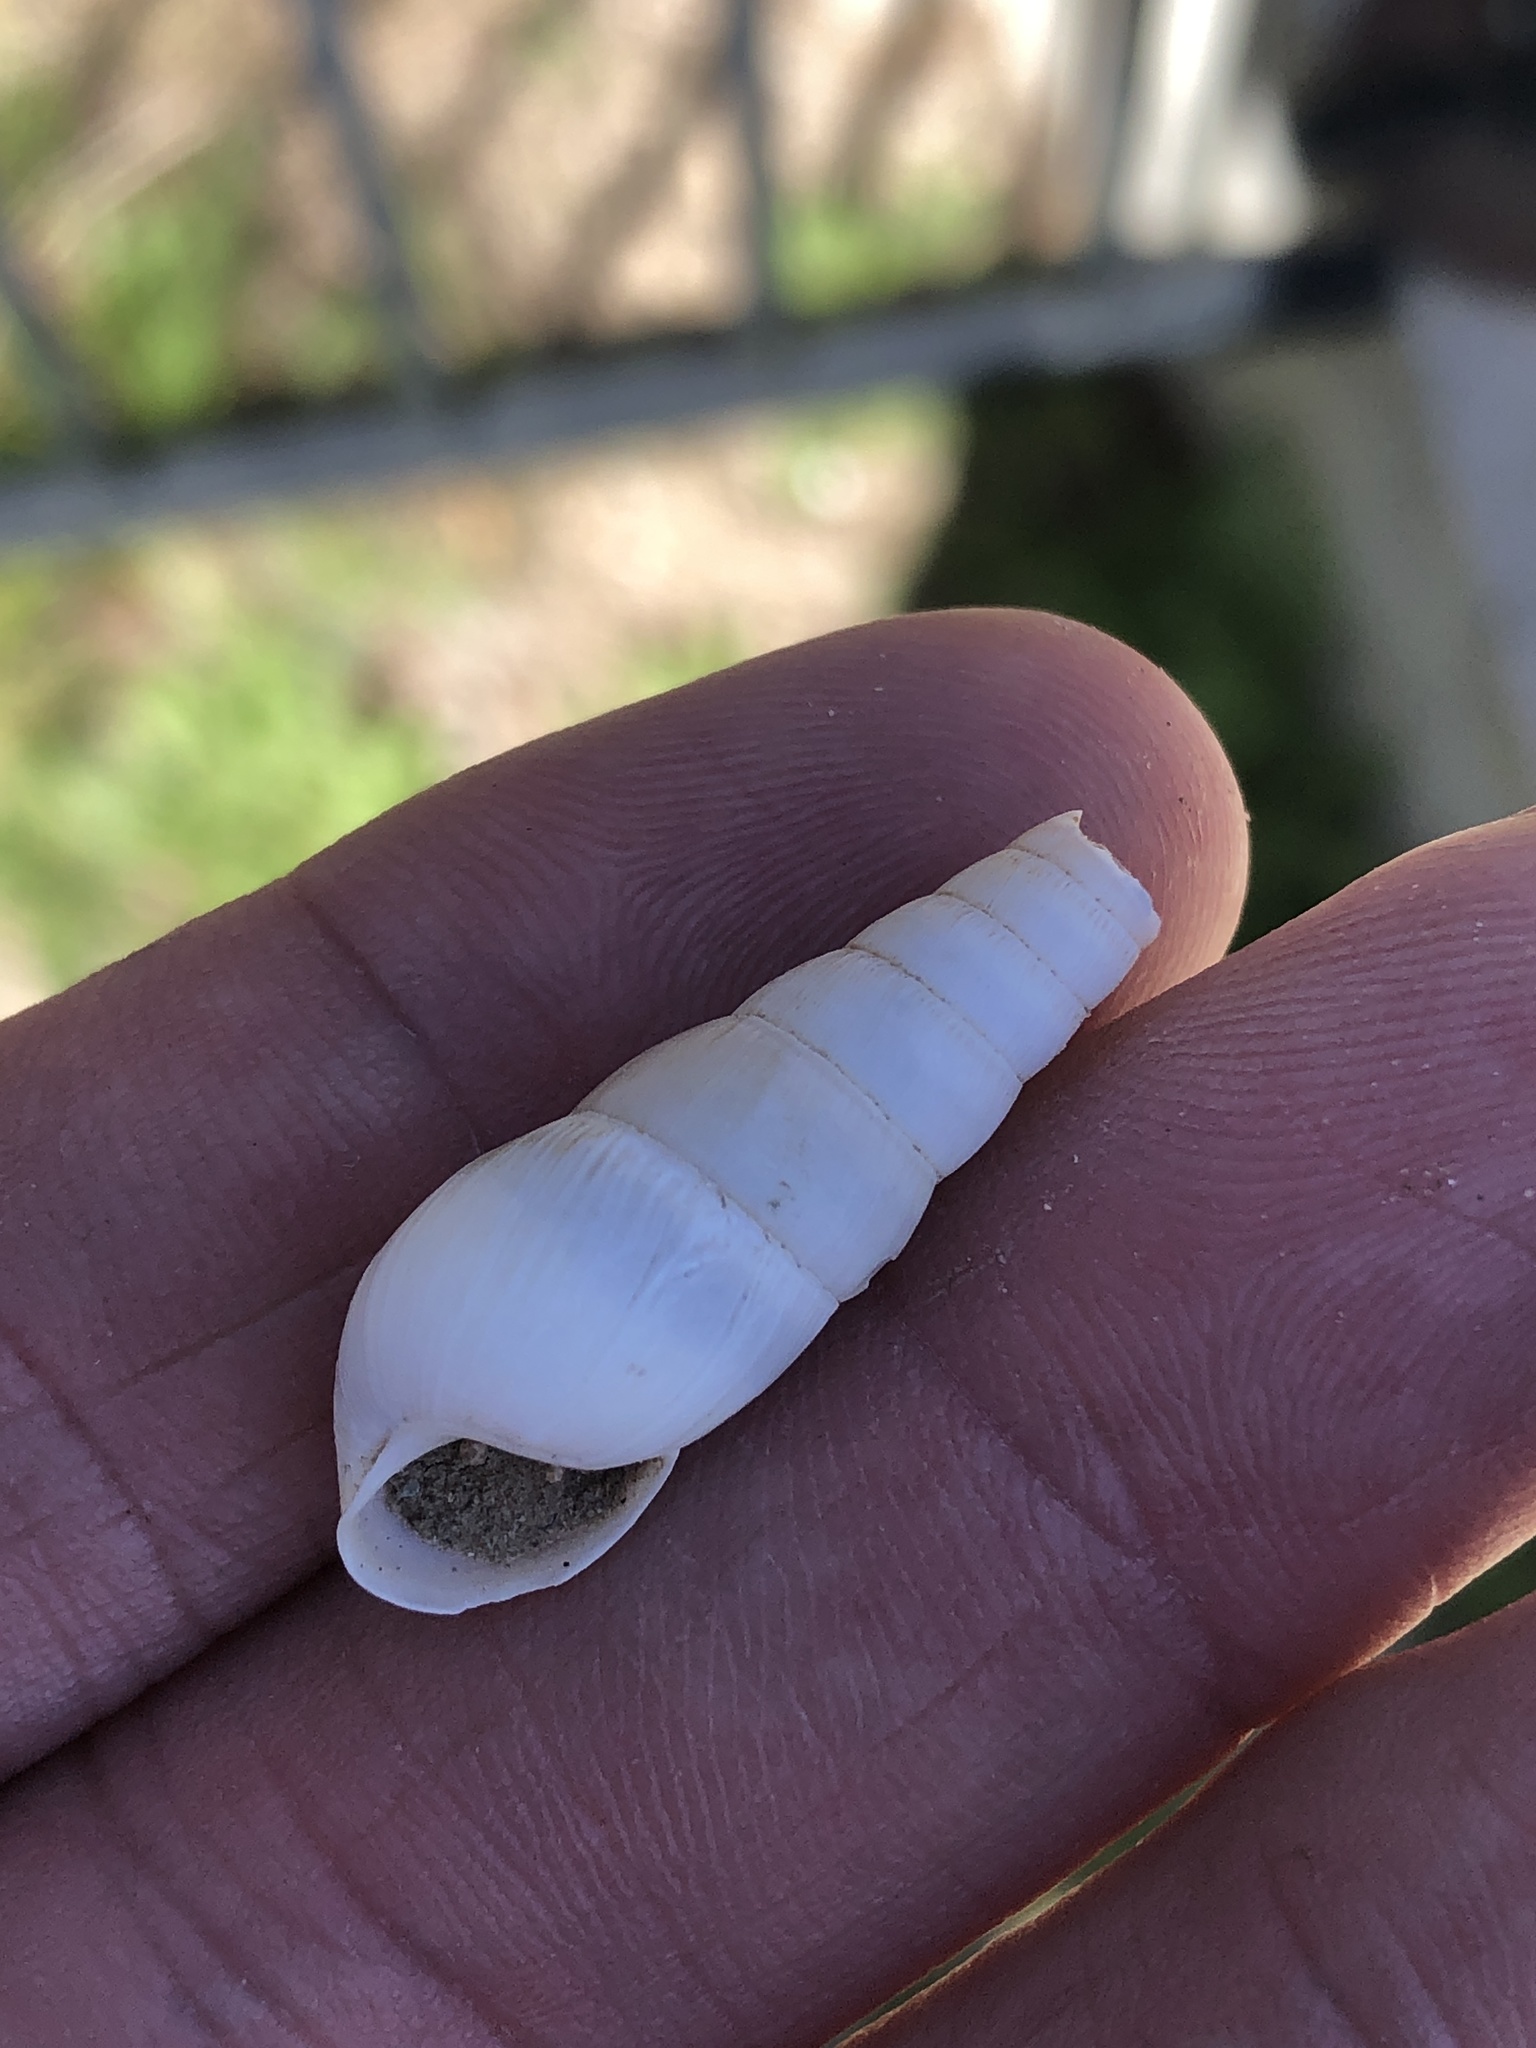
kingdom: Animalia
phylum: Mollusca
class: Gastropoda
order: Stylommatophora
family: Achatinidae
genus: Rumina
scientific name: Rumina decollata
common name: Decollate snail
